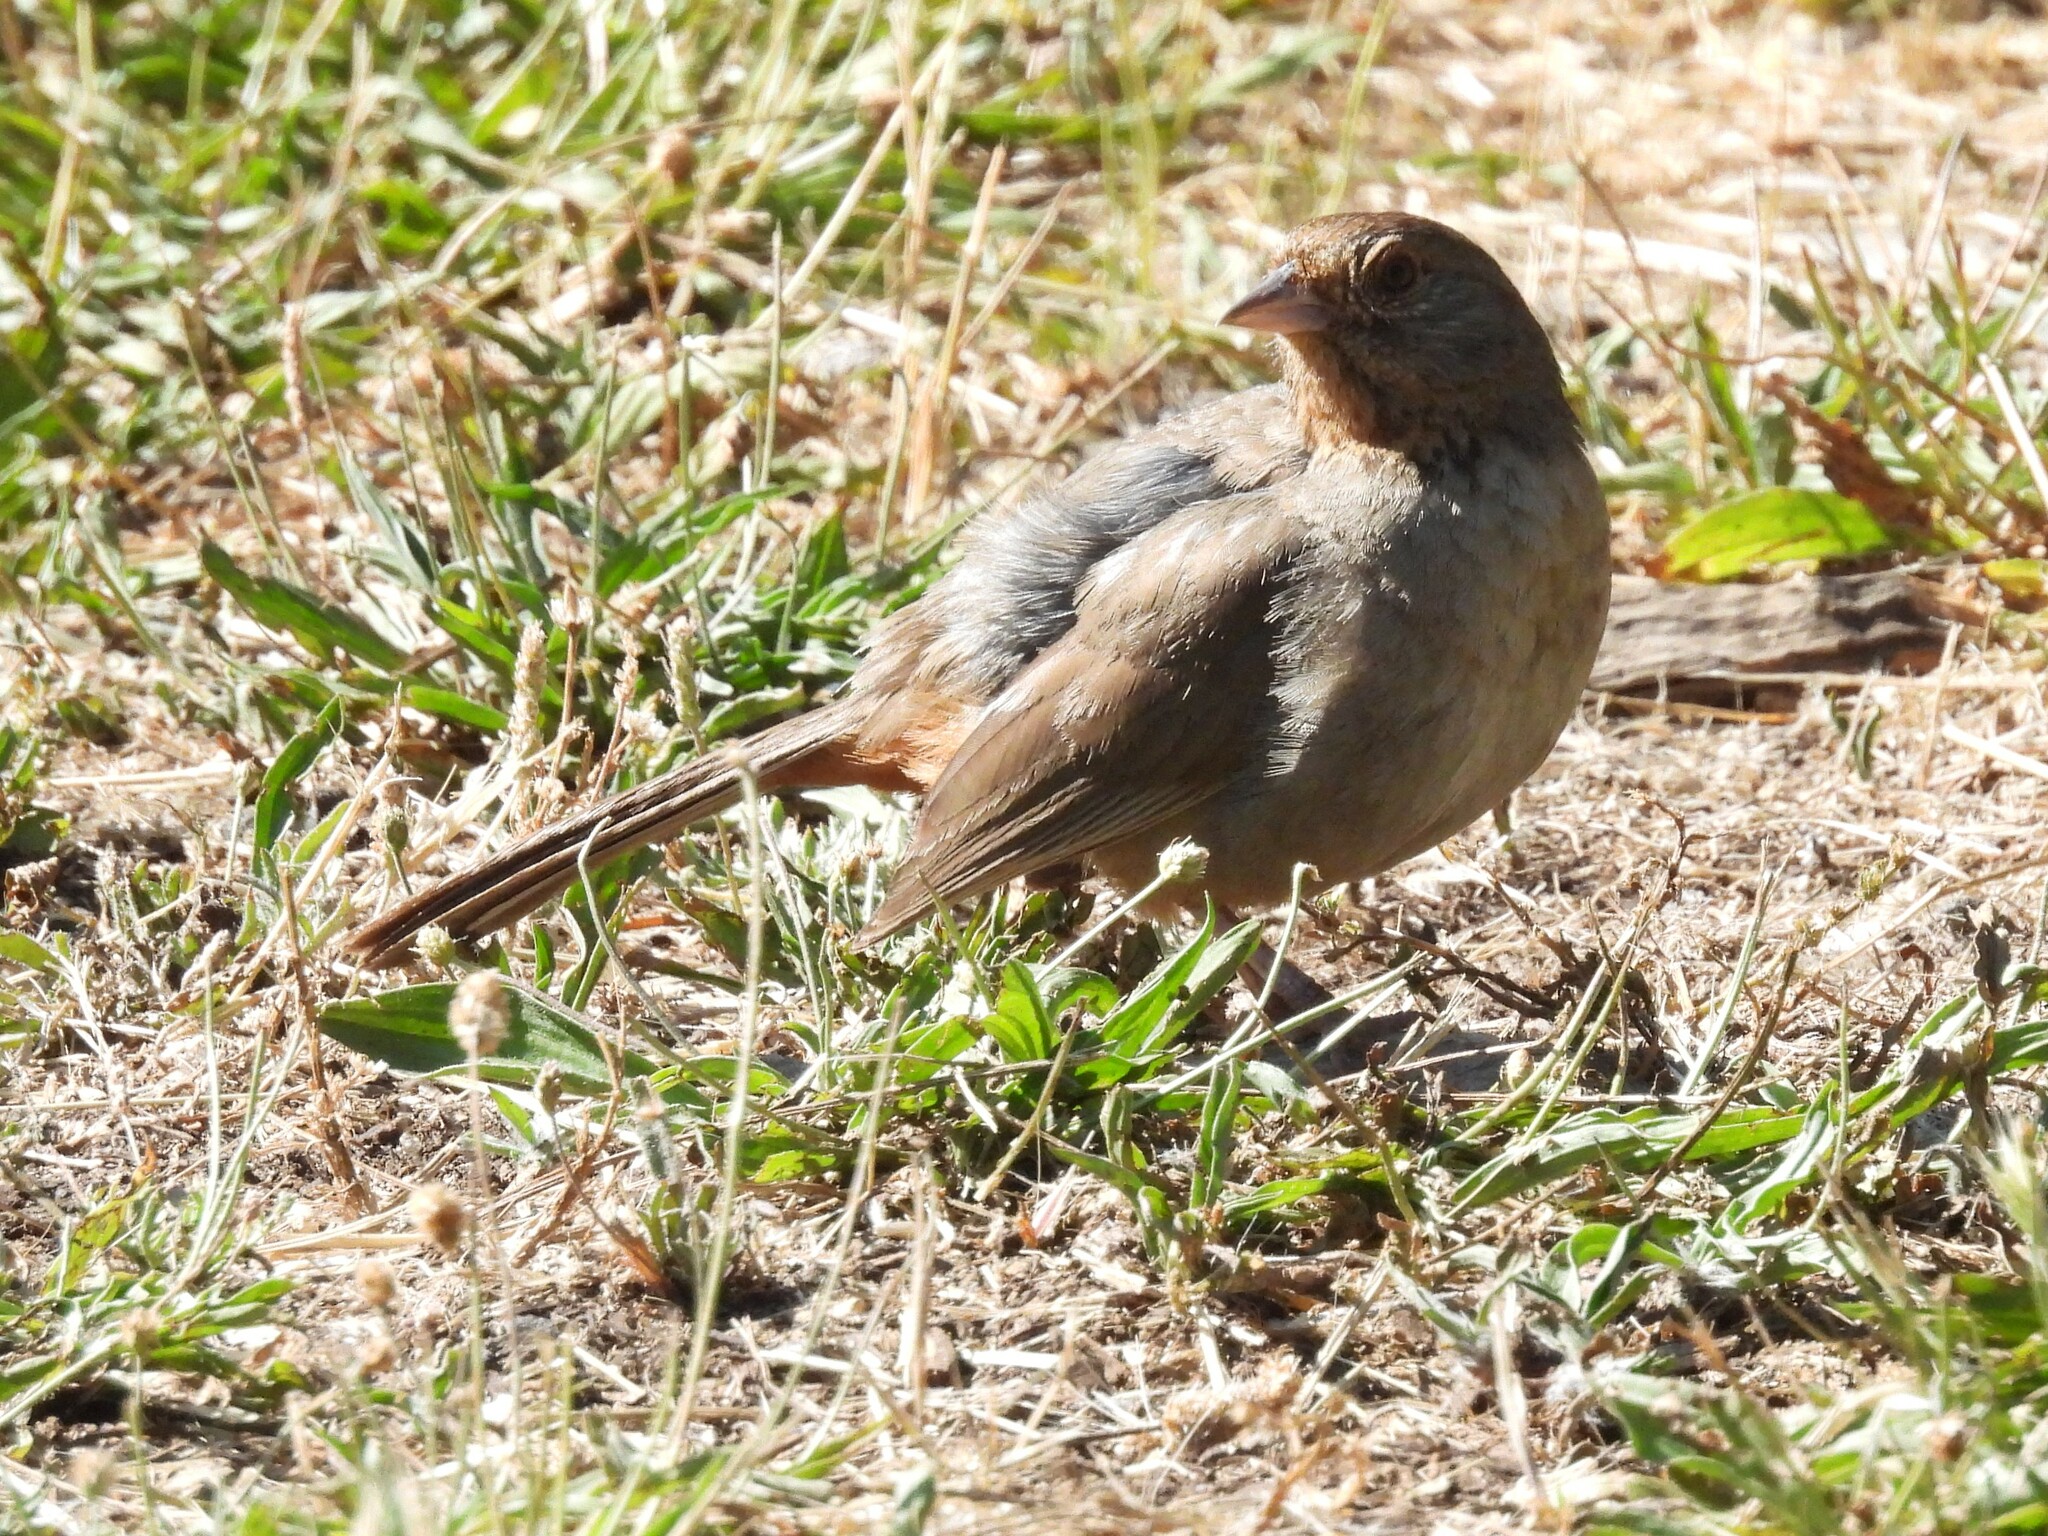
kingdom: Animalia
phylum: Chordata
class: Aves
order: Passeriformes
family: Passerellidae
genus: Melozone
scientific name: Melozone crissalis
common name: California towhee
